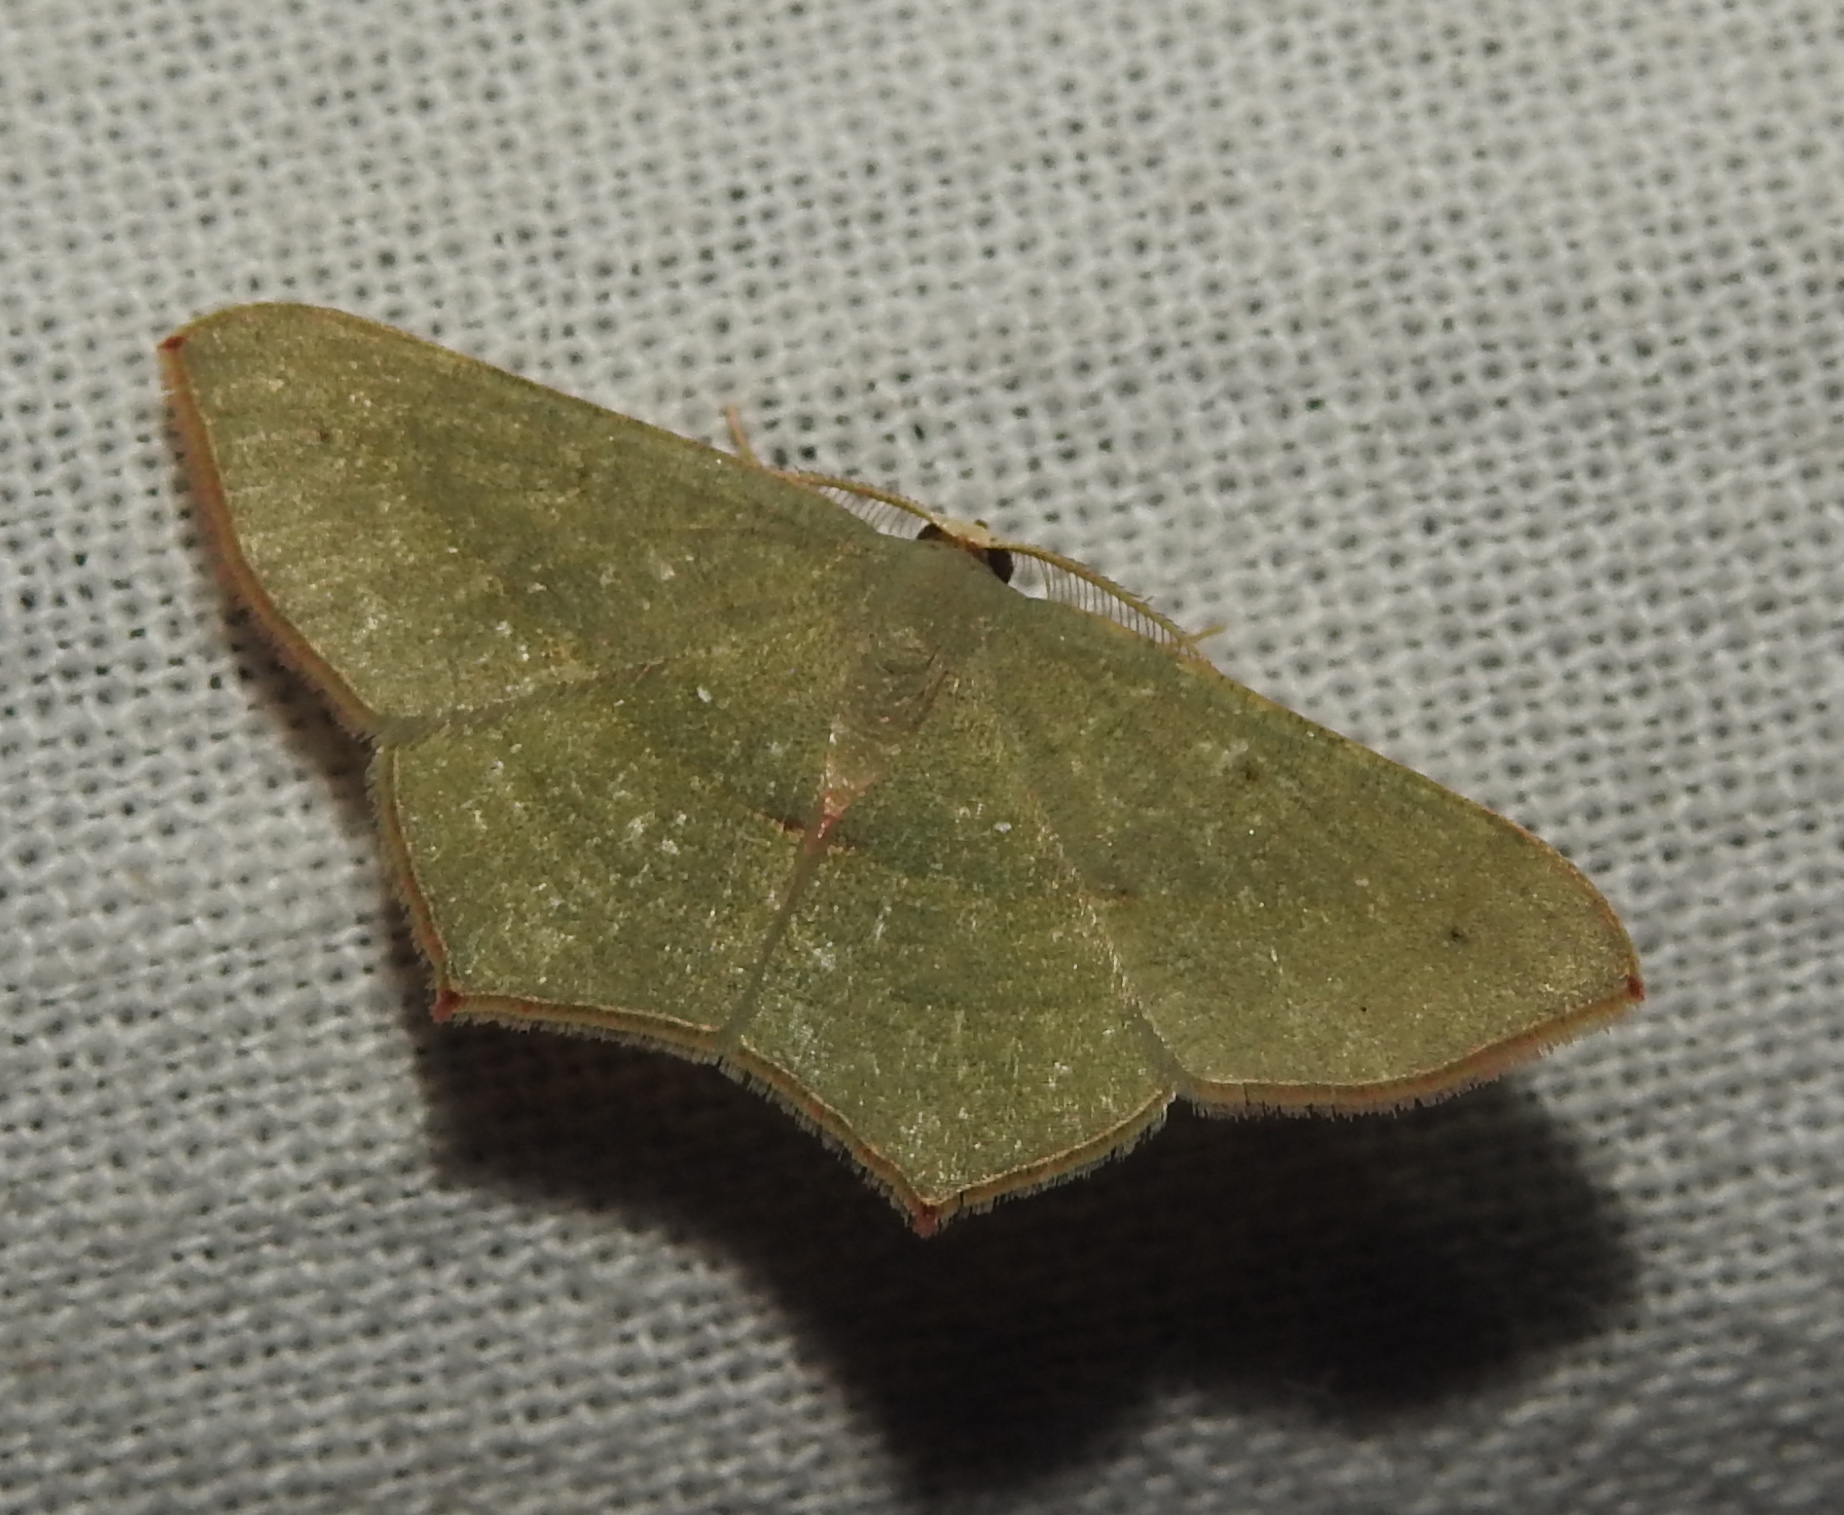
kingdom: Animalia
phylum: Arthropoda
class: Insecta
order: Lepidoptera
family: Geometridae
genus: Traminda
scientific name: Traminda mundissima
